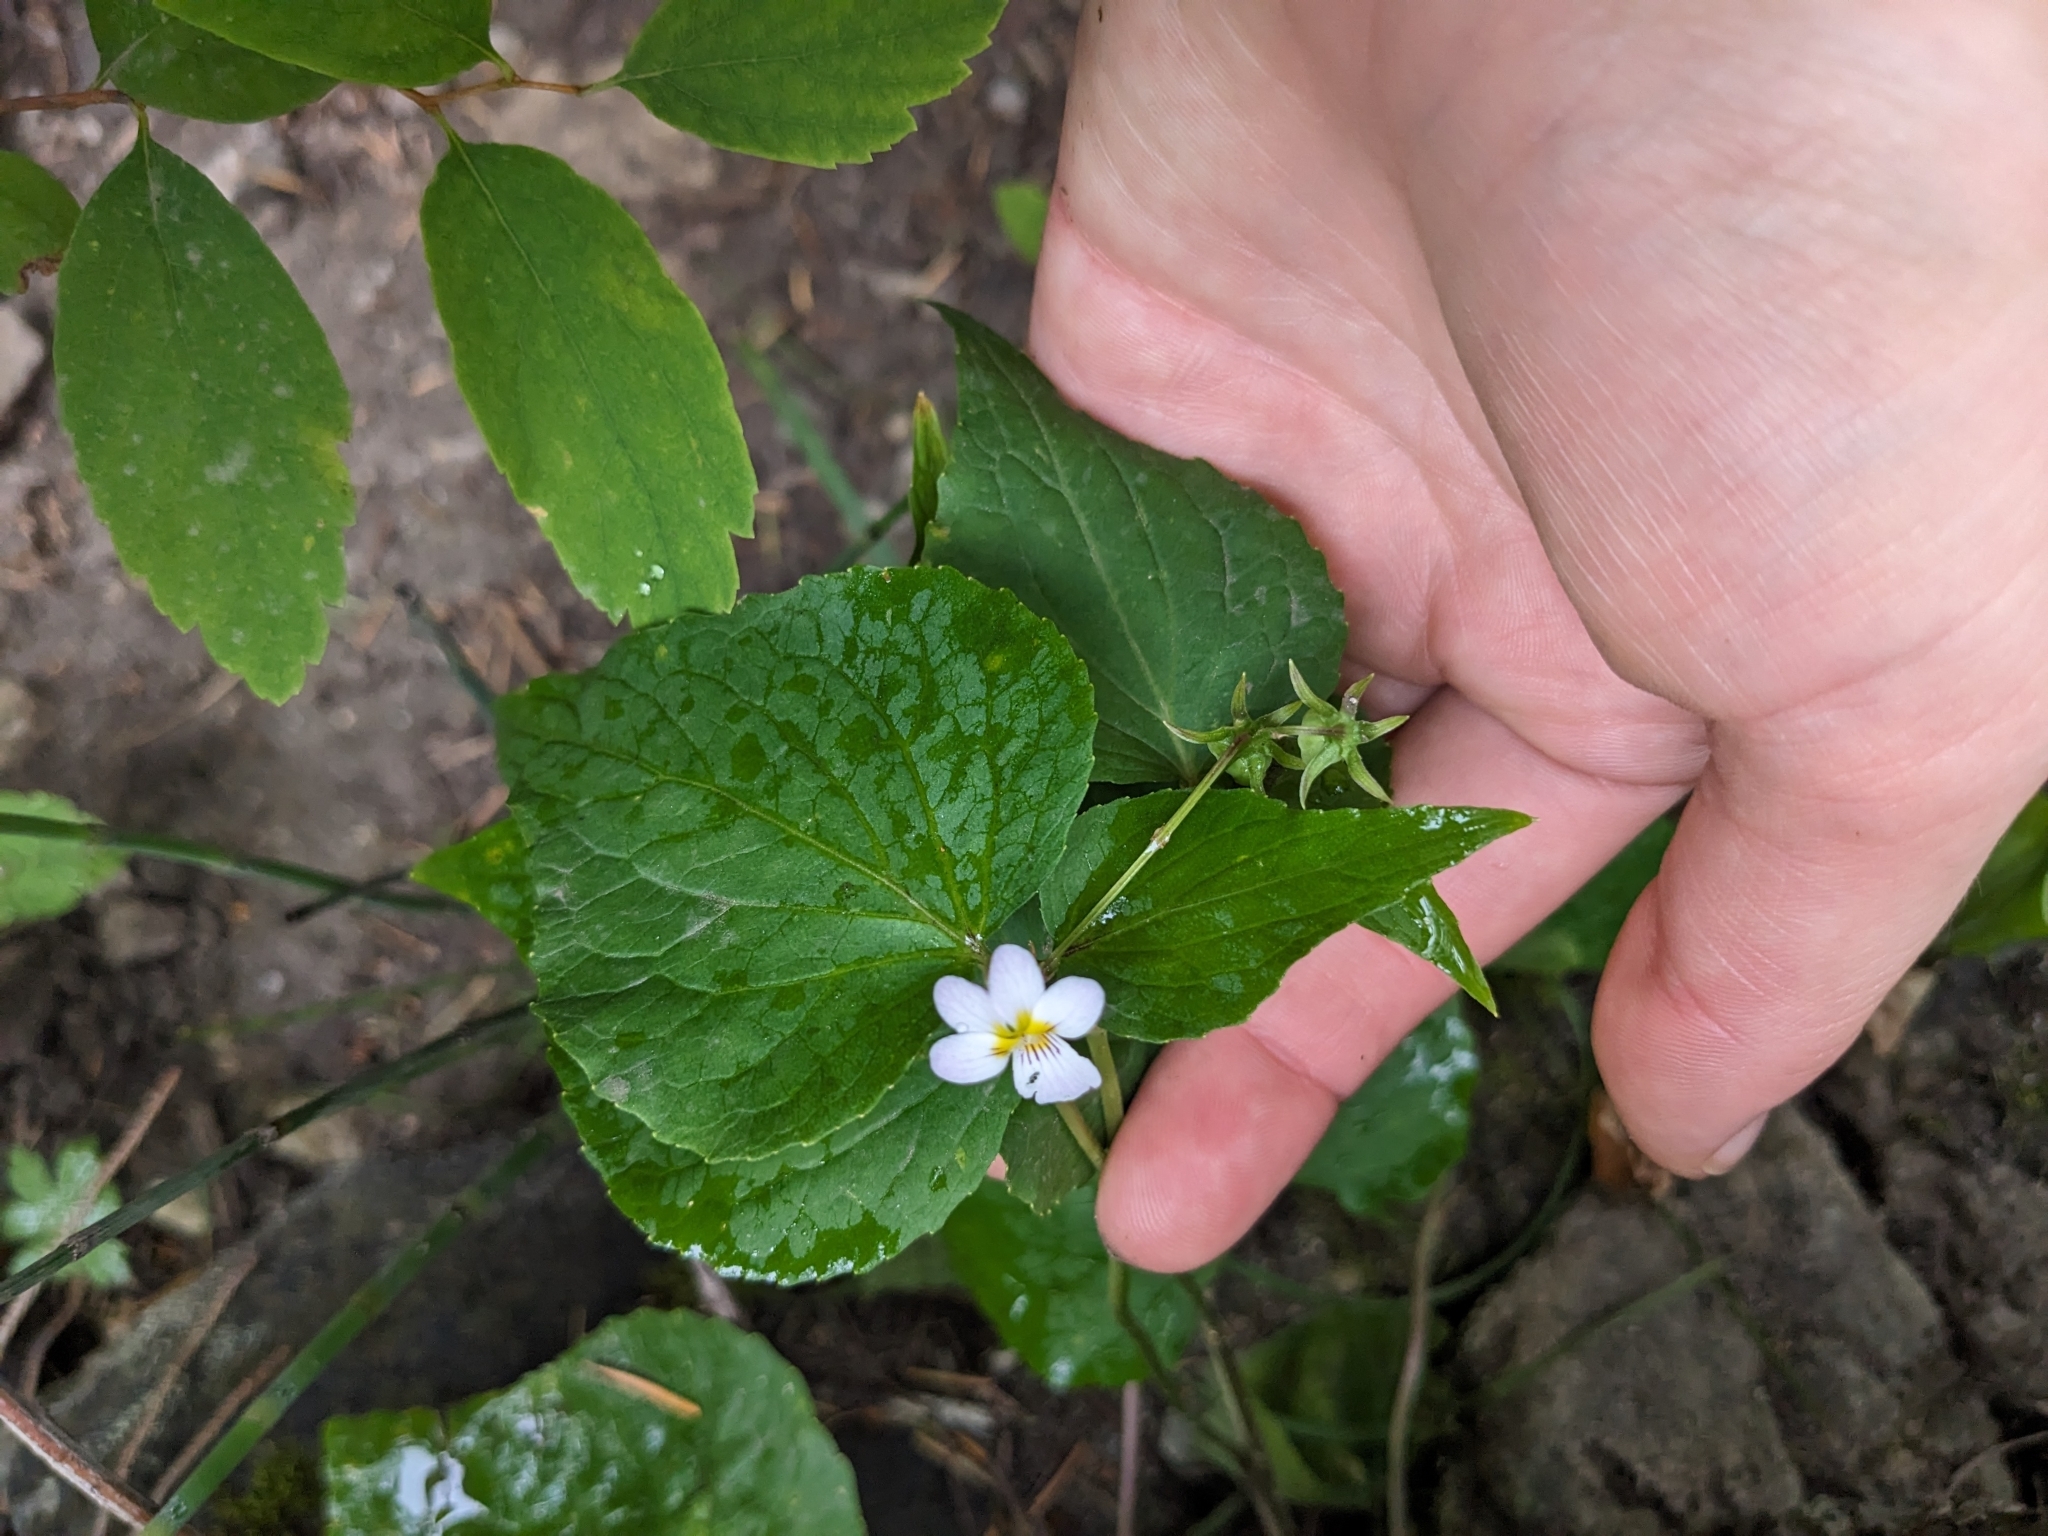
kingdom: Plantae
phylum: Tracheophyta
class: Magnoliopsida
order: Malpighiales
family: Violaceae
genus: Viola
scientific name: Viola canadensis
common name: Canada violet
